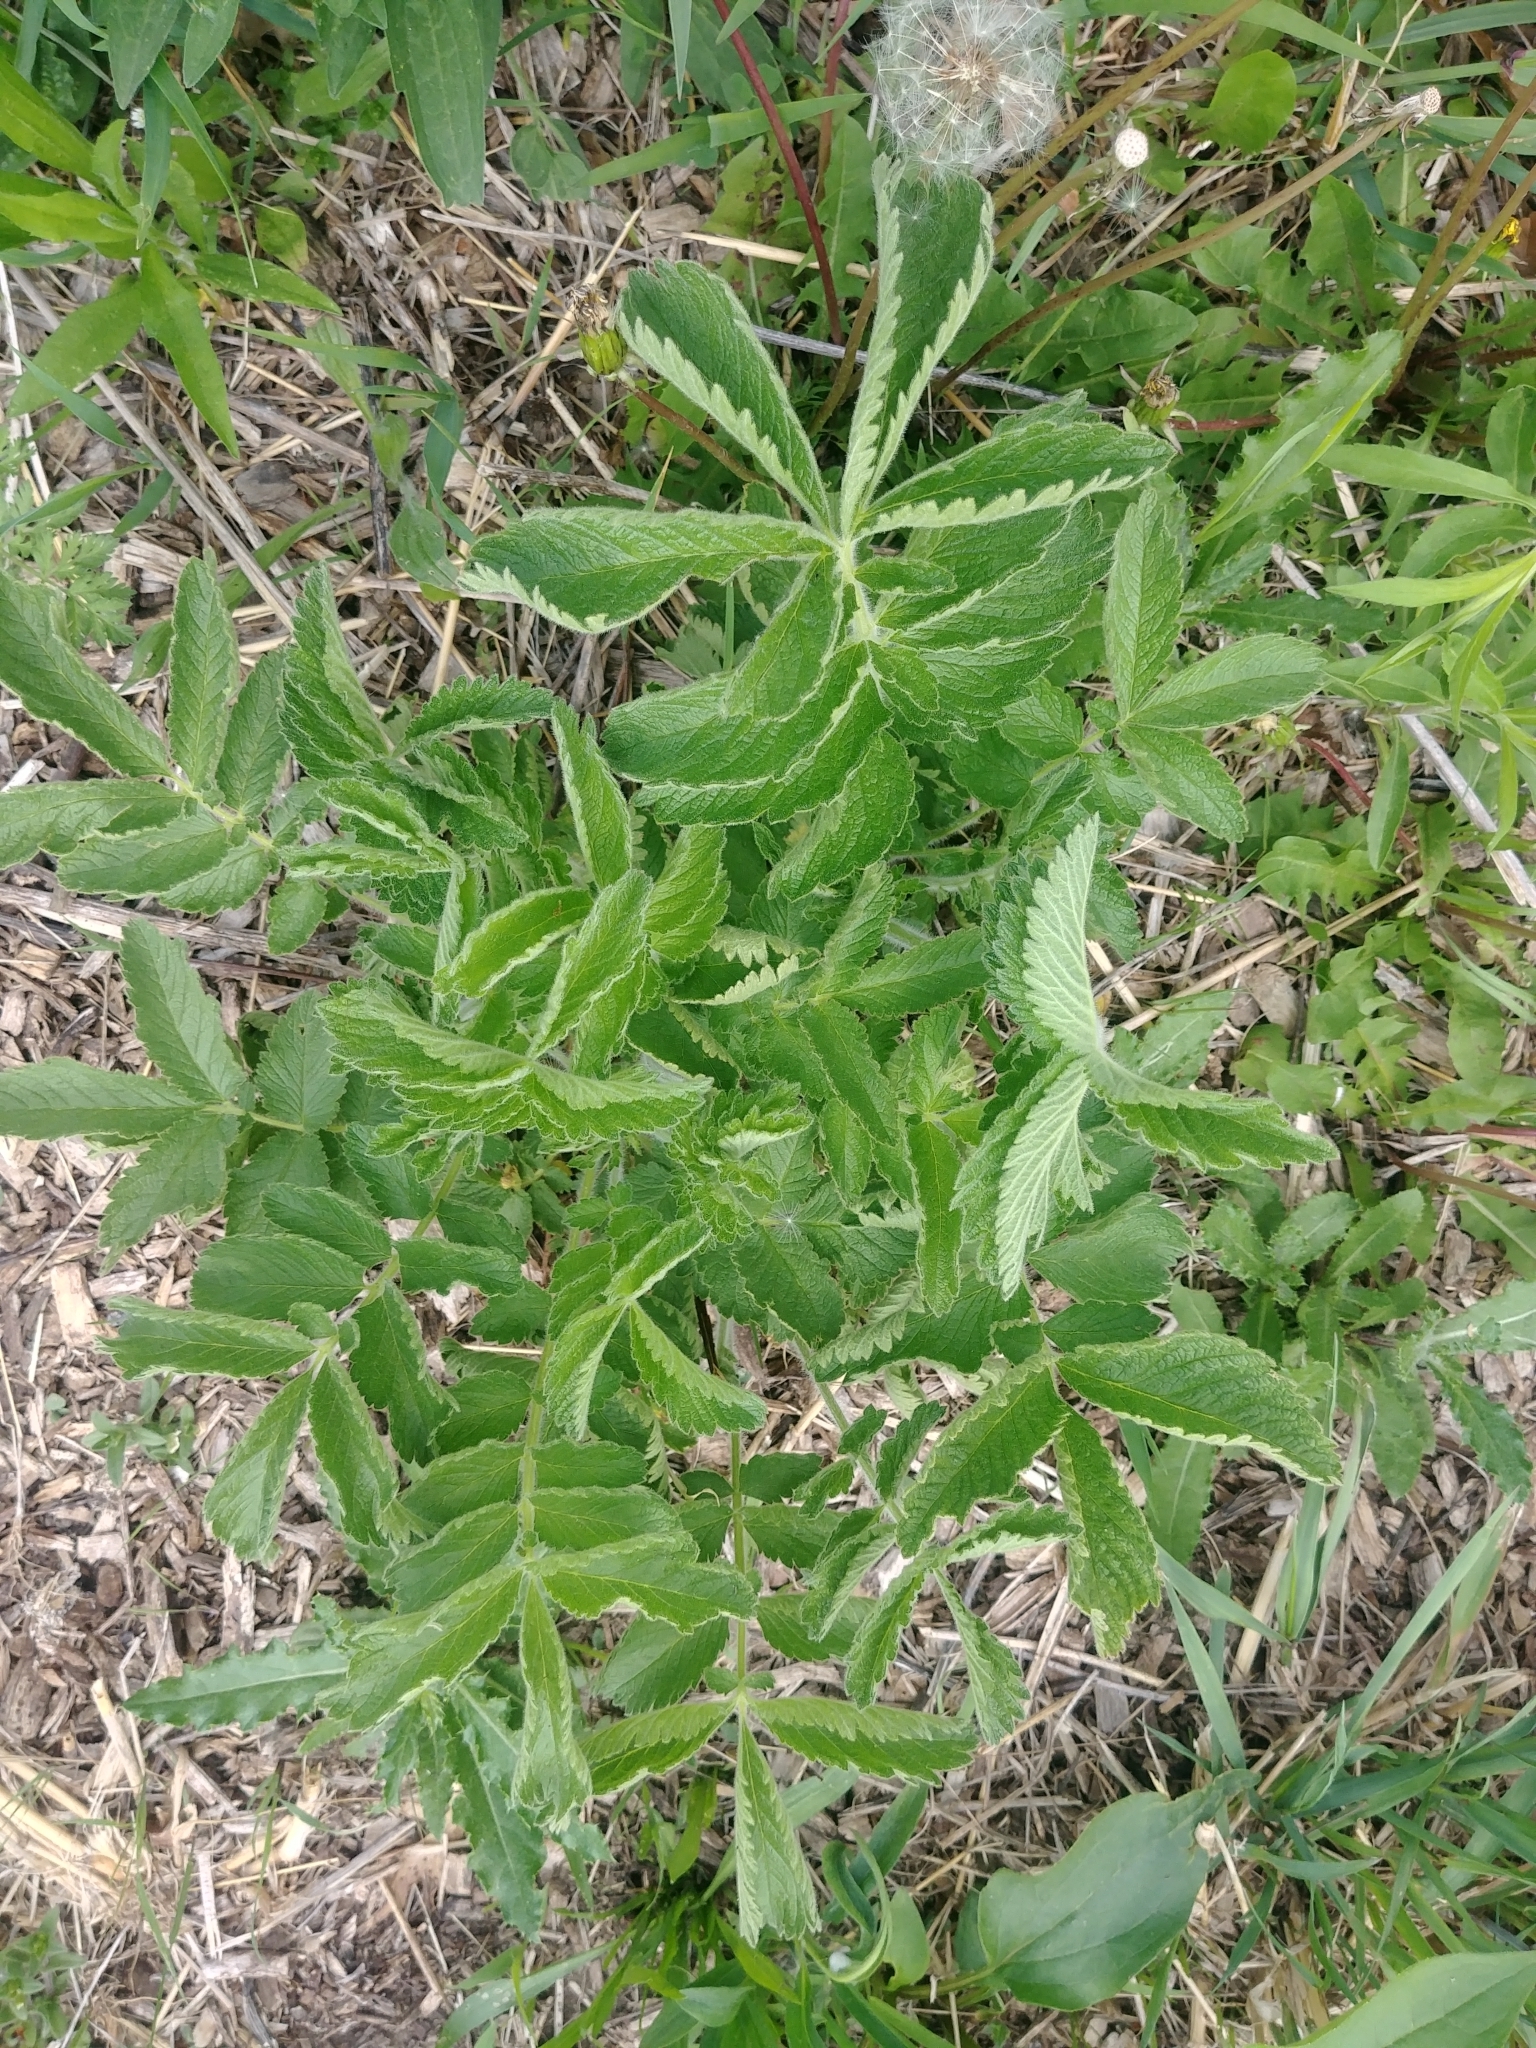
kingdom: Plantae
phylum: Tracheophyta
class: Magnoliopsida
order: Rosales
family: Rosaceae
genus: Drymocallis
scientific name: Drymocallis arguta
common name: Tall cinquefoil
